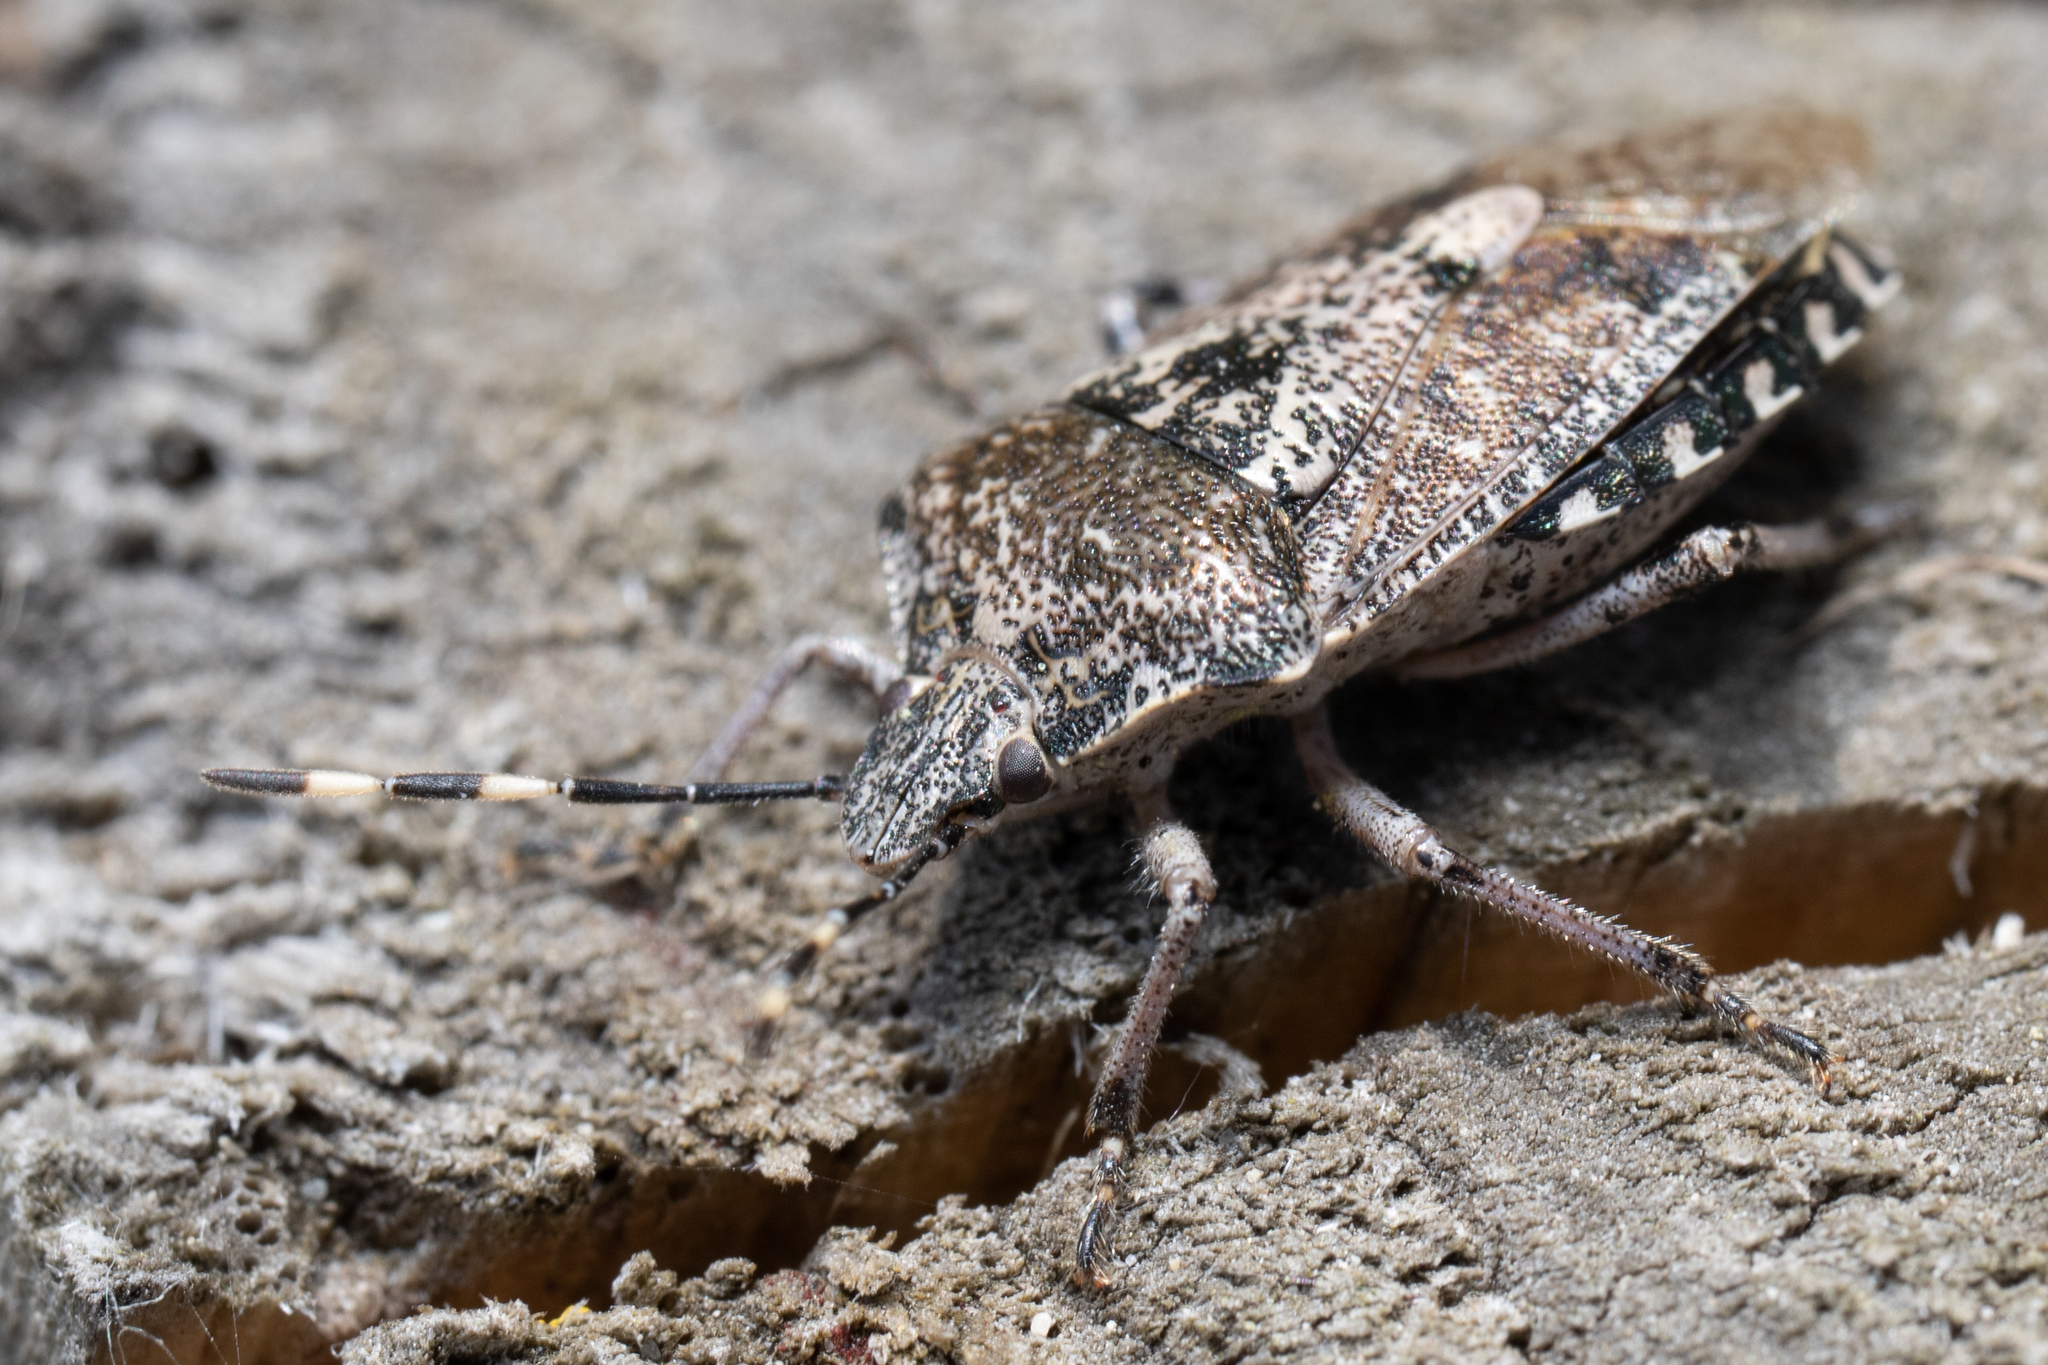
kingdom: Animalia
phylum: Arthropoda
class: Insecta
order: Hemiptera
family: Pentatomidae
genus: Rhaphigaster
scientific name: Rhaphigaster nebulosa
